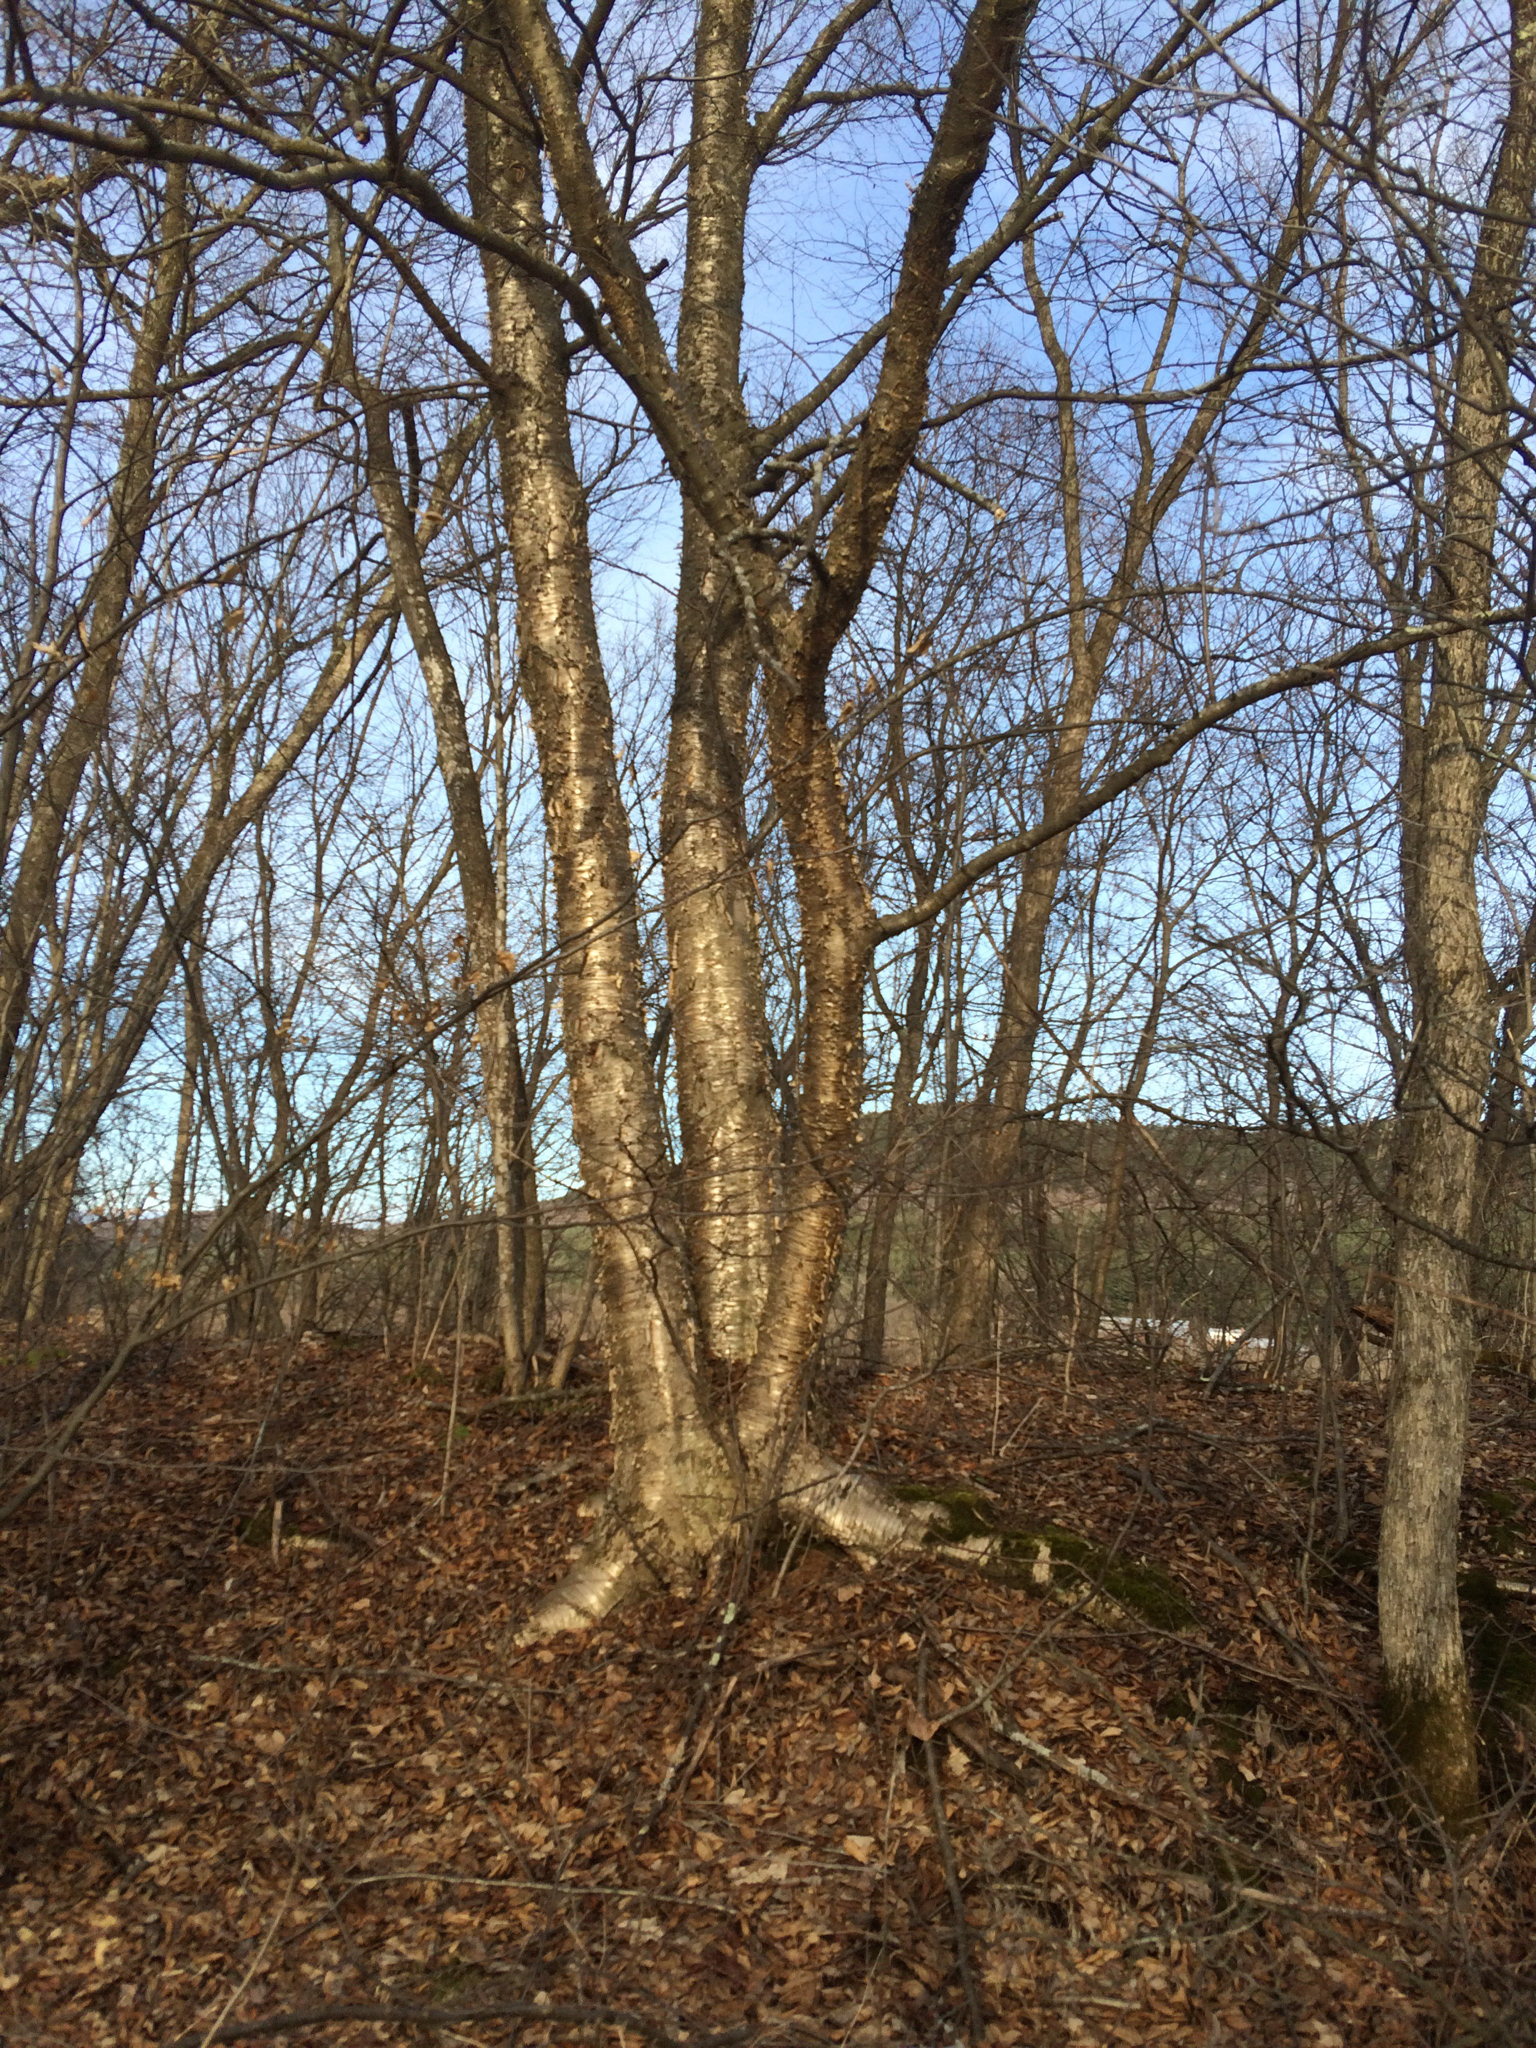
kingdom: Plantae
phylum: Tracheophyta
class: Magnoliopsida
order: Fagales
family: Betulaceae
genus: Betula
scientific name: Betula alleghaniensis
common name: Yellow birch
